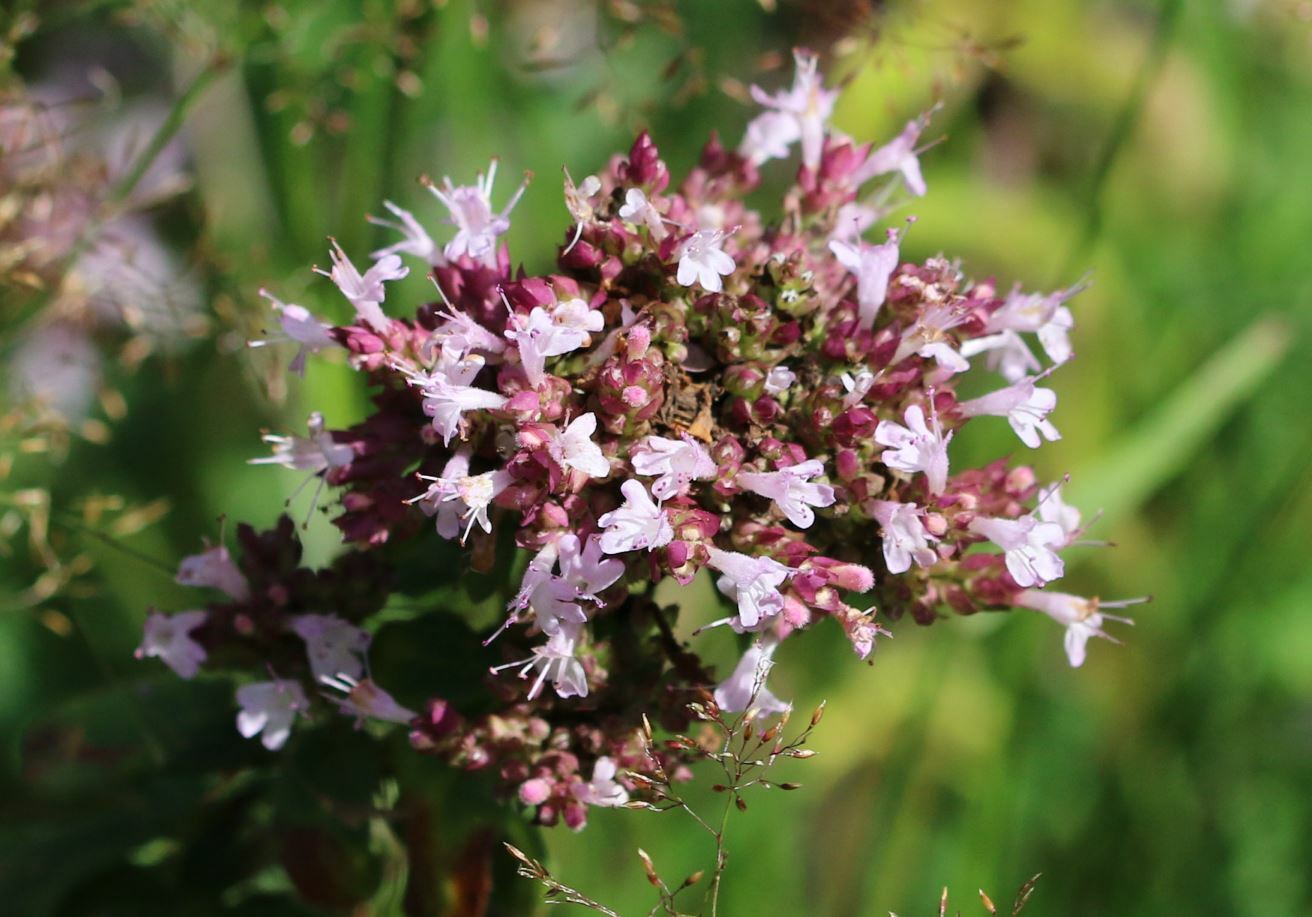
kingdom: Plantae
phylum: Tracheophyta
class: Magnoliopsida
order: Lamiales
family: Lamiaceae
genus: Origanum
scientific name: Origanum vulgare
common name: Wild marjoram
